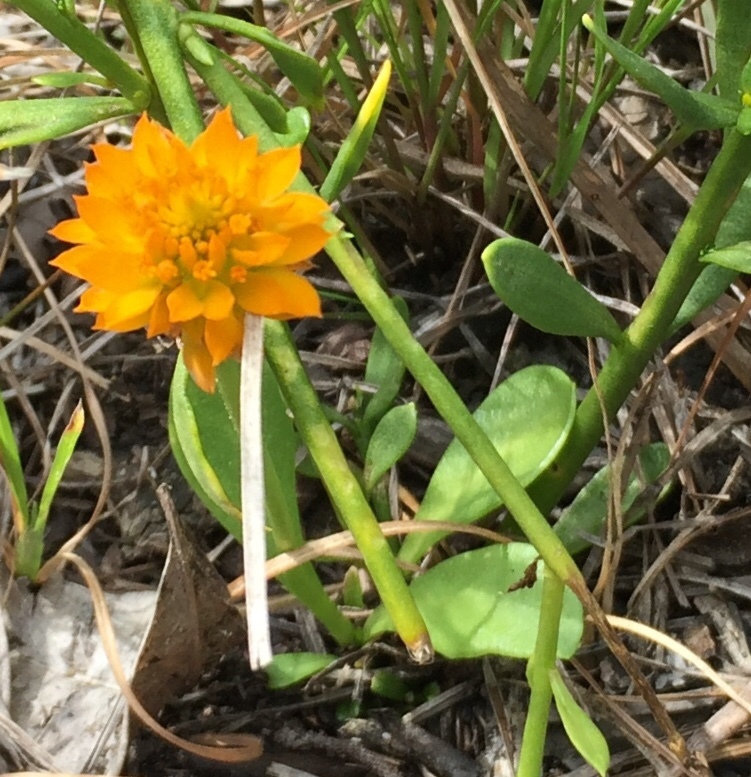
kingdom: Plantae
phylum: Tracheophyta
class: Magnoliopsida
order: Fabales
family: Polygalaceae
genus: Polygala
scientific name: Polygala lutea
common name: Orange milkwort
